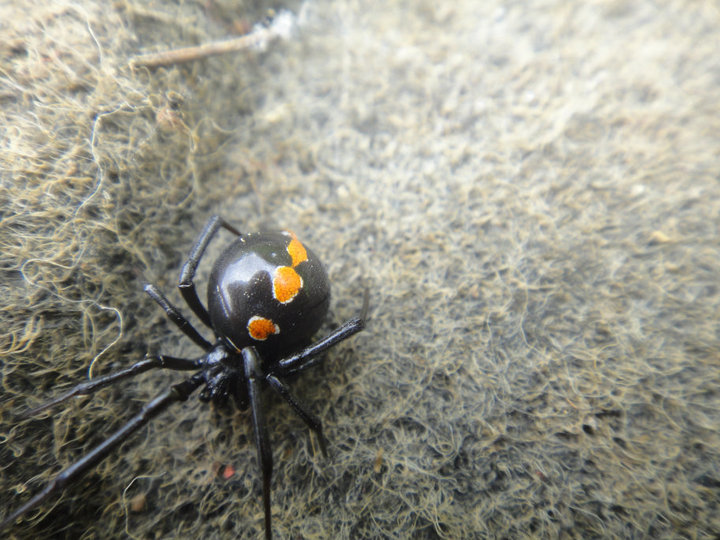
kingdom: Animalia
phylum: Arthropoda
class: Arachnida
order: Araneae
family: Theridiidae
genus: Latrodectus
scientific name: Latrodectus variolus
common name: Northern black widow
